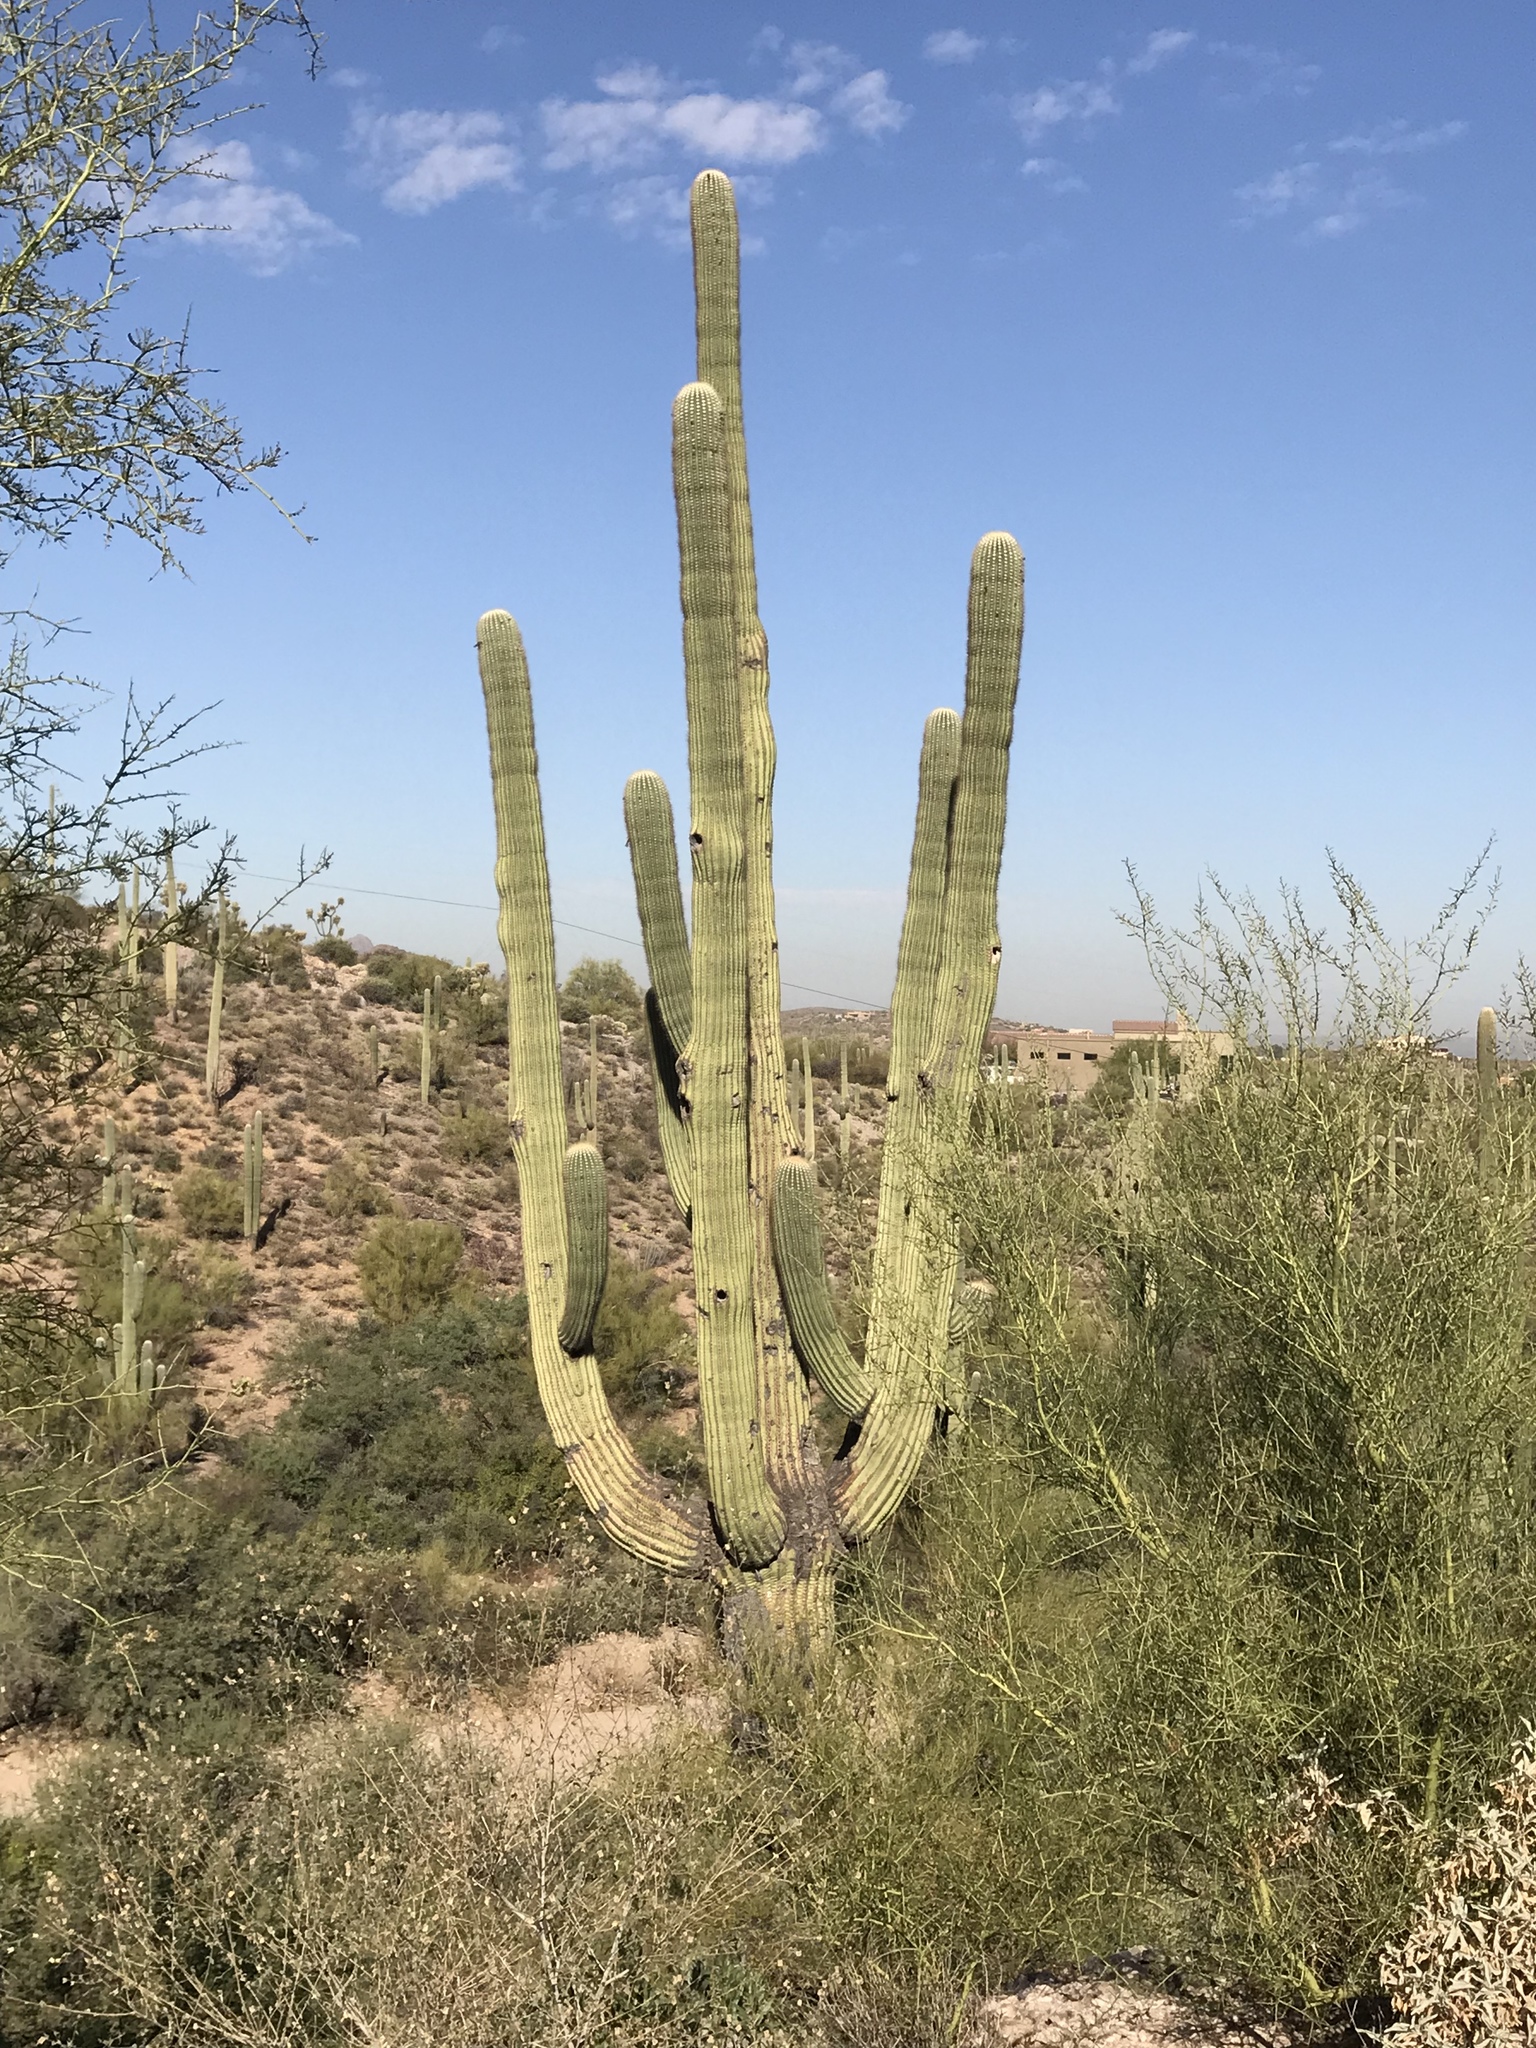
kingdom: Plantae
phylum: Tracheophyta
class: Magnoliopsida
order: Caryophyllales
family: Cactaceae
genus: Carnegiea
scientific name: Carnegiea gigantea
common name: Saguaro
